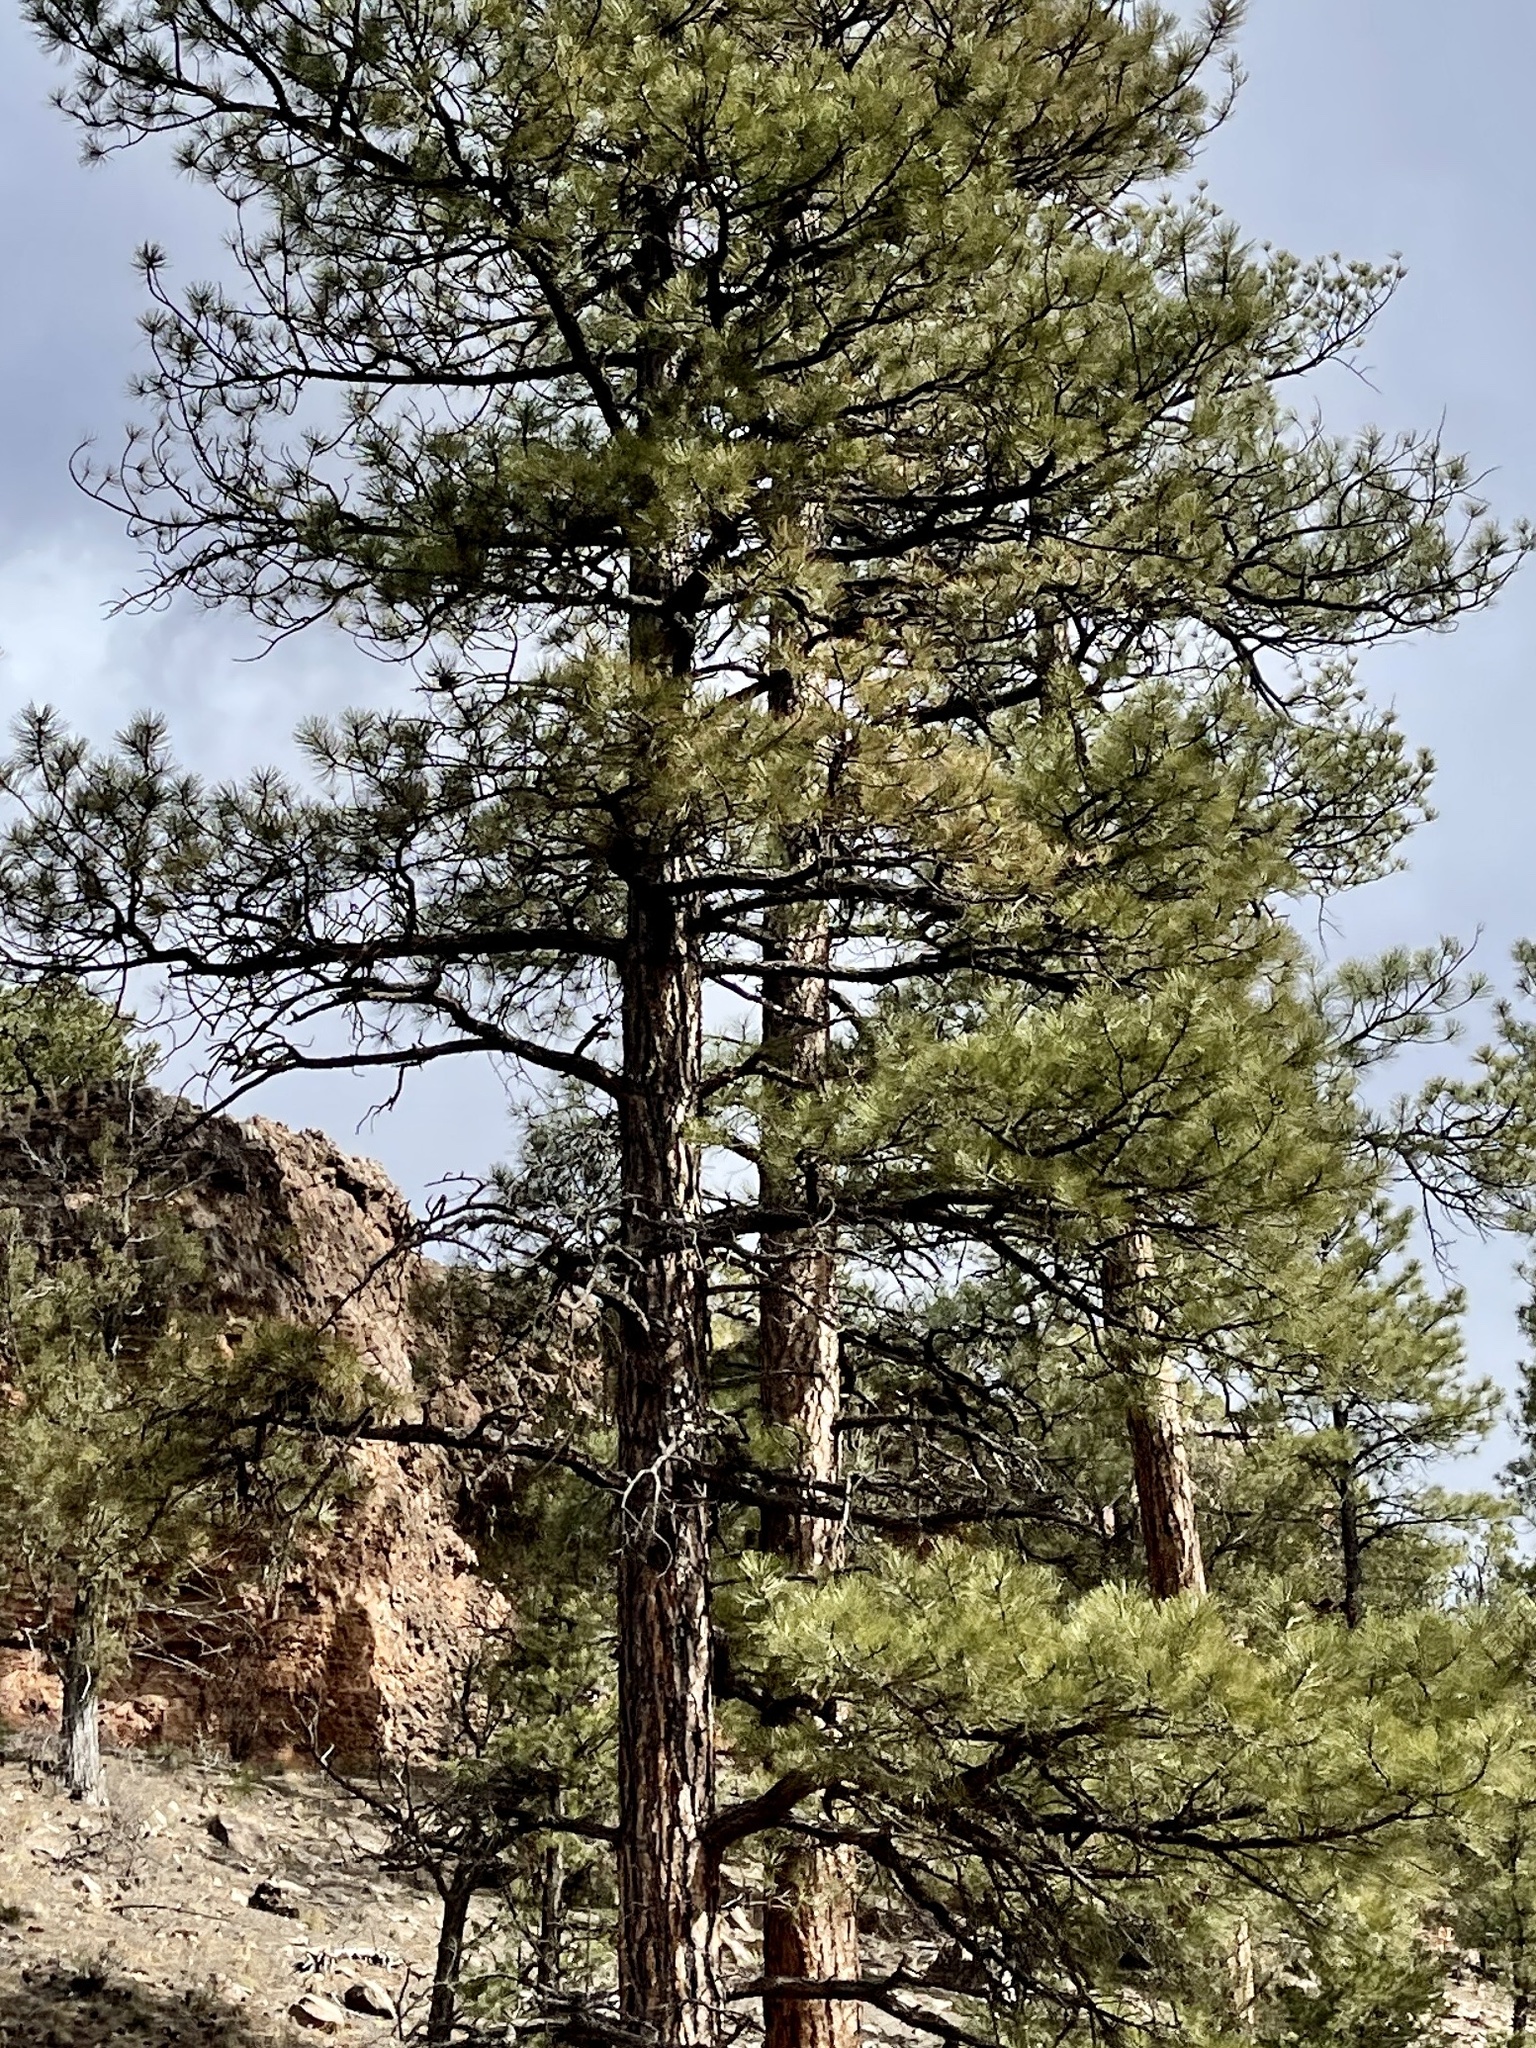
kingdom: Plantae
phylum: Tracheophyta
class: Pinopsida
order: Pinales
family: Pinaceae
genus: Pinus
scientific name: Pinus ponderosa
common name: Western yellow-pine
